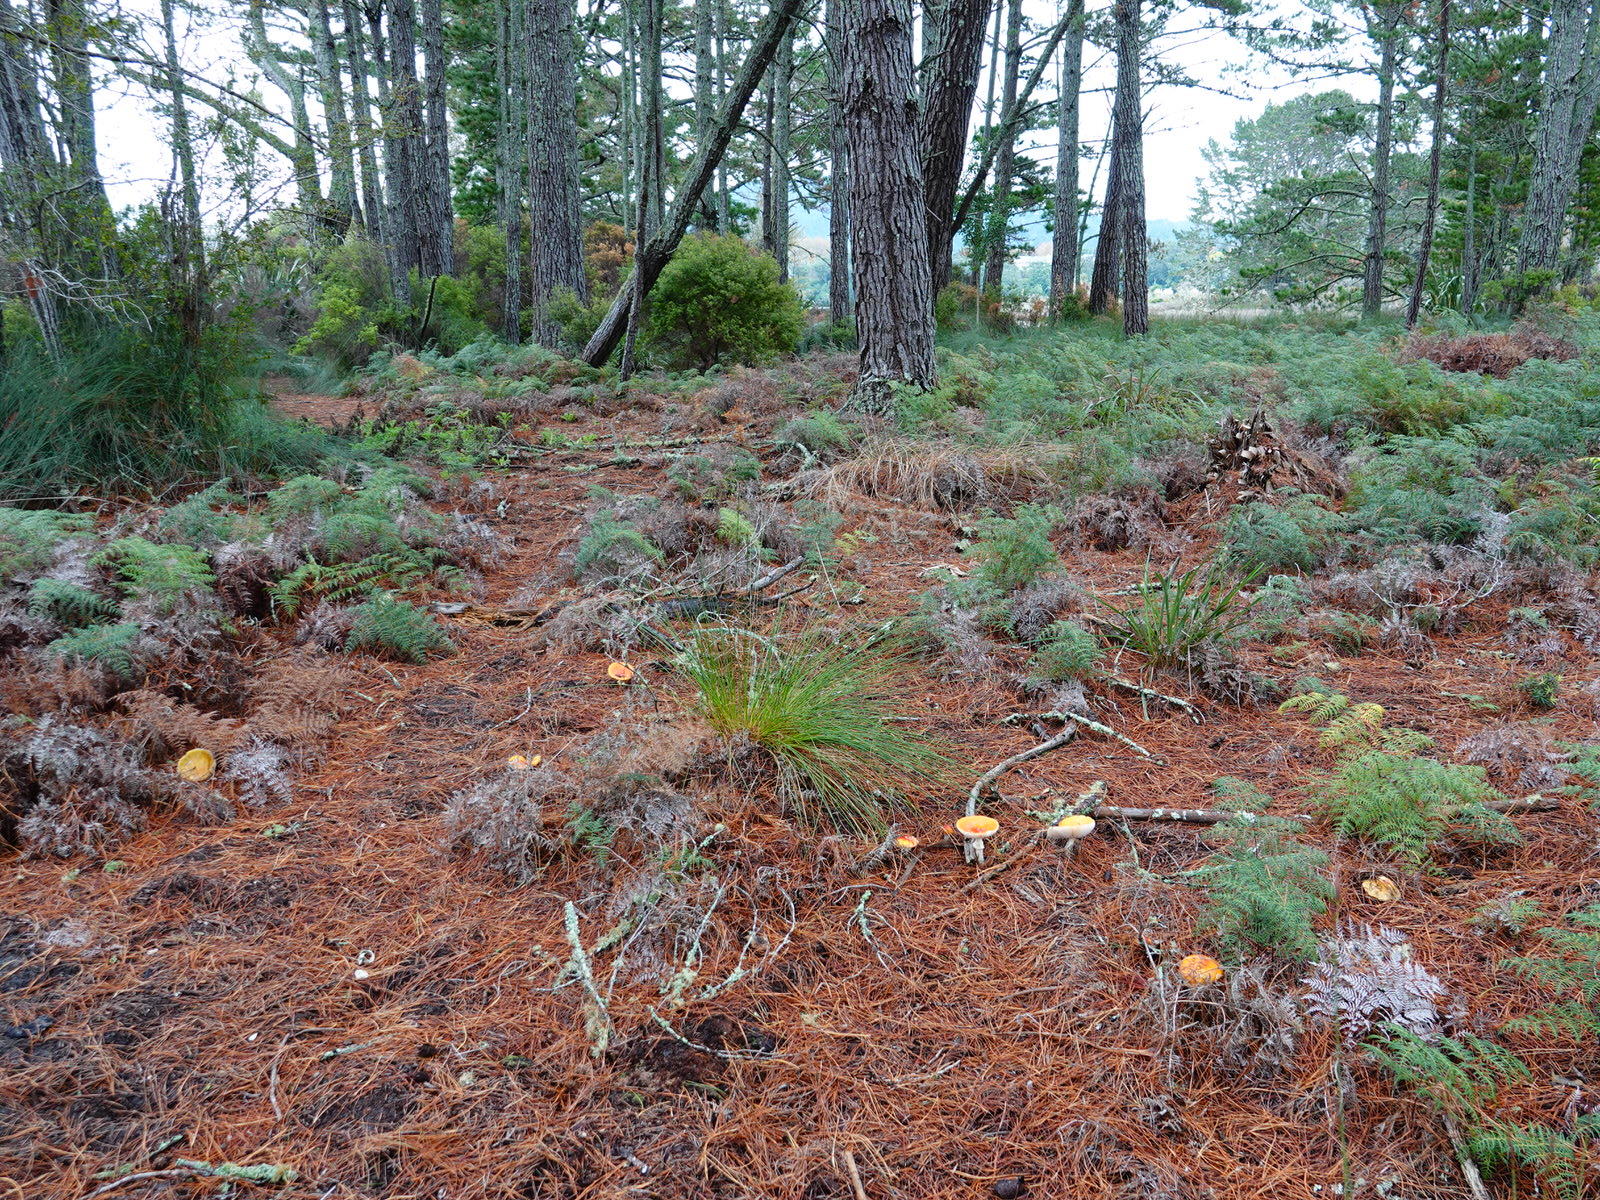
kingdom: Fungi
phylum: Basidiomycota
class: Agaricomycetes
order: Agaricales
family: Amanitaceae
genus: Amanita
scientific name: Amanita muscaria
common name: Fly agaric
